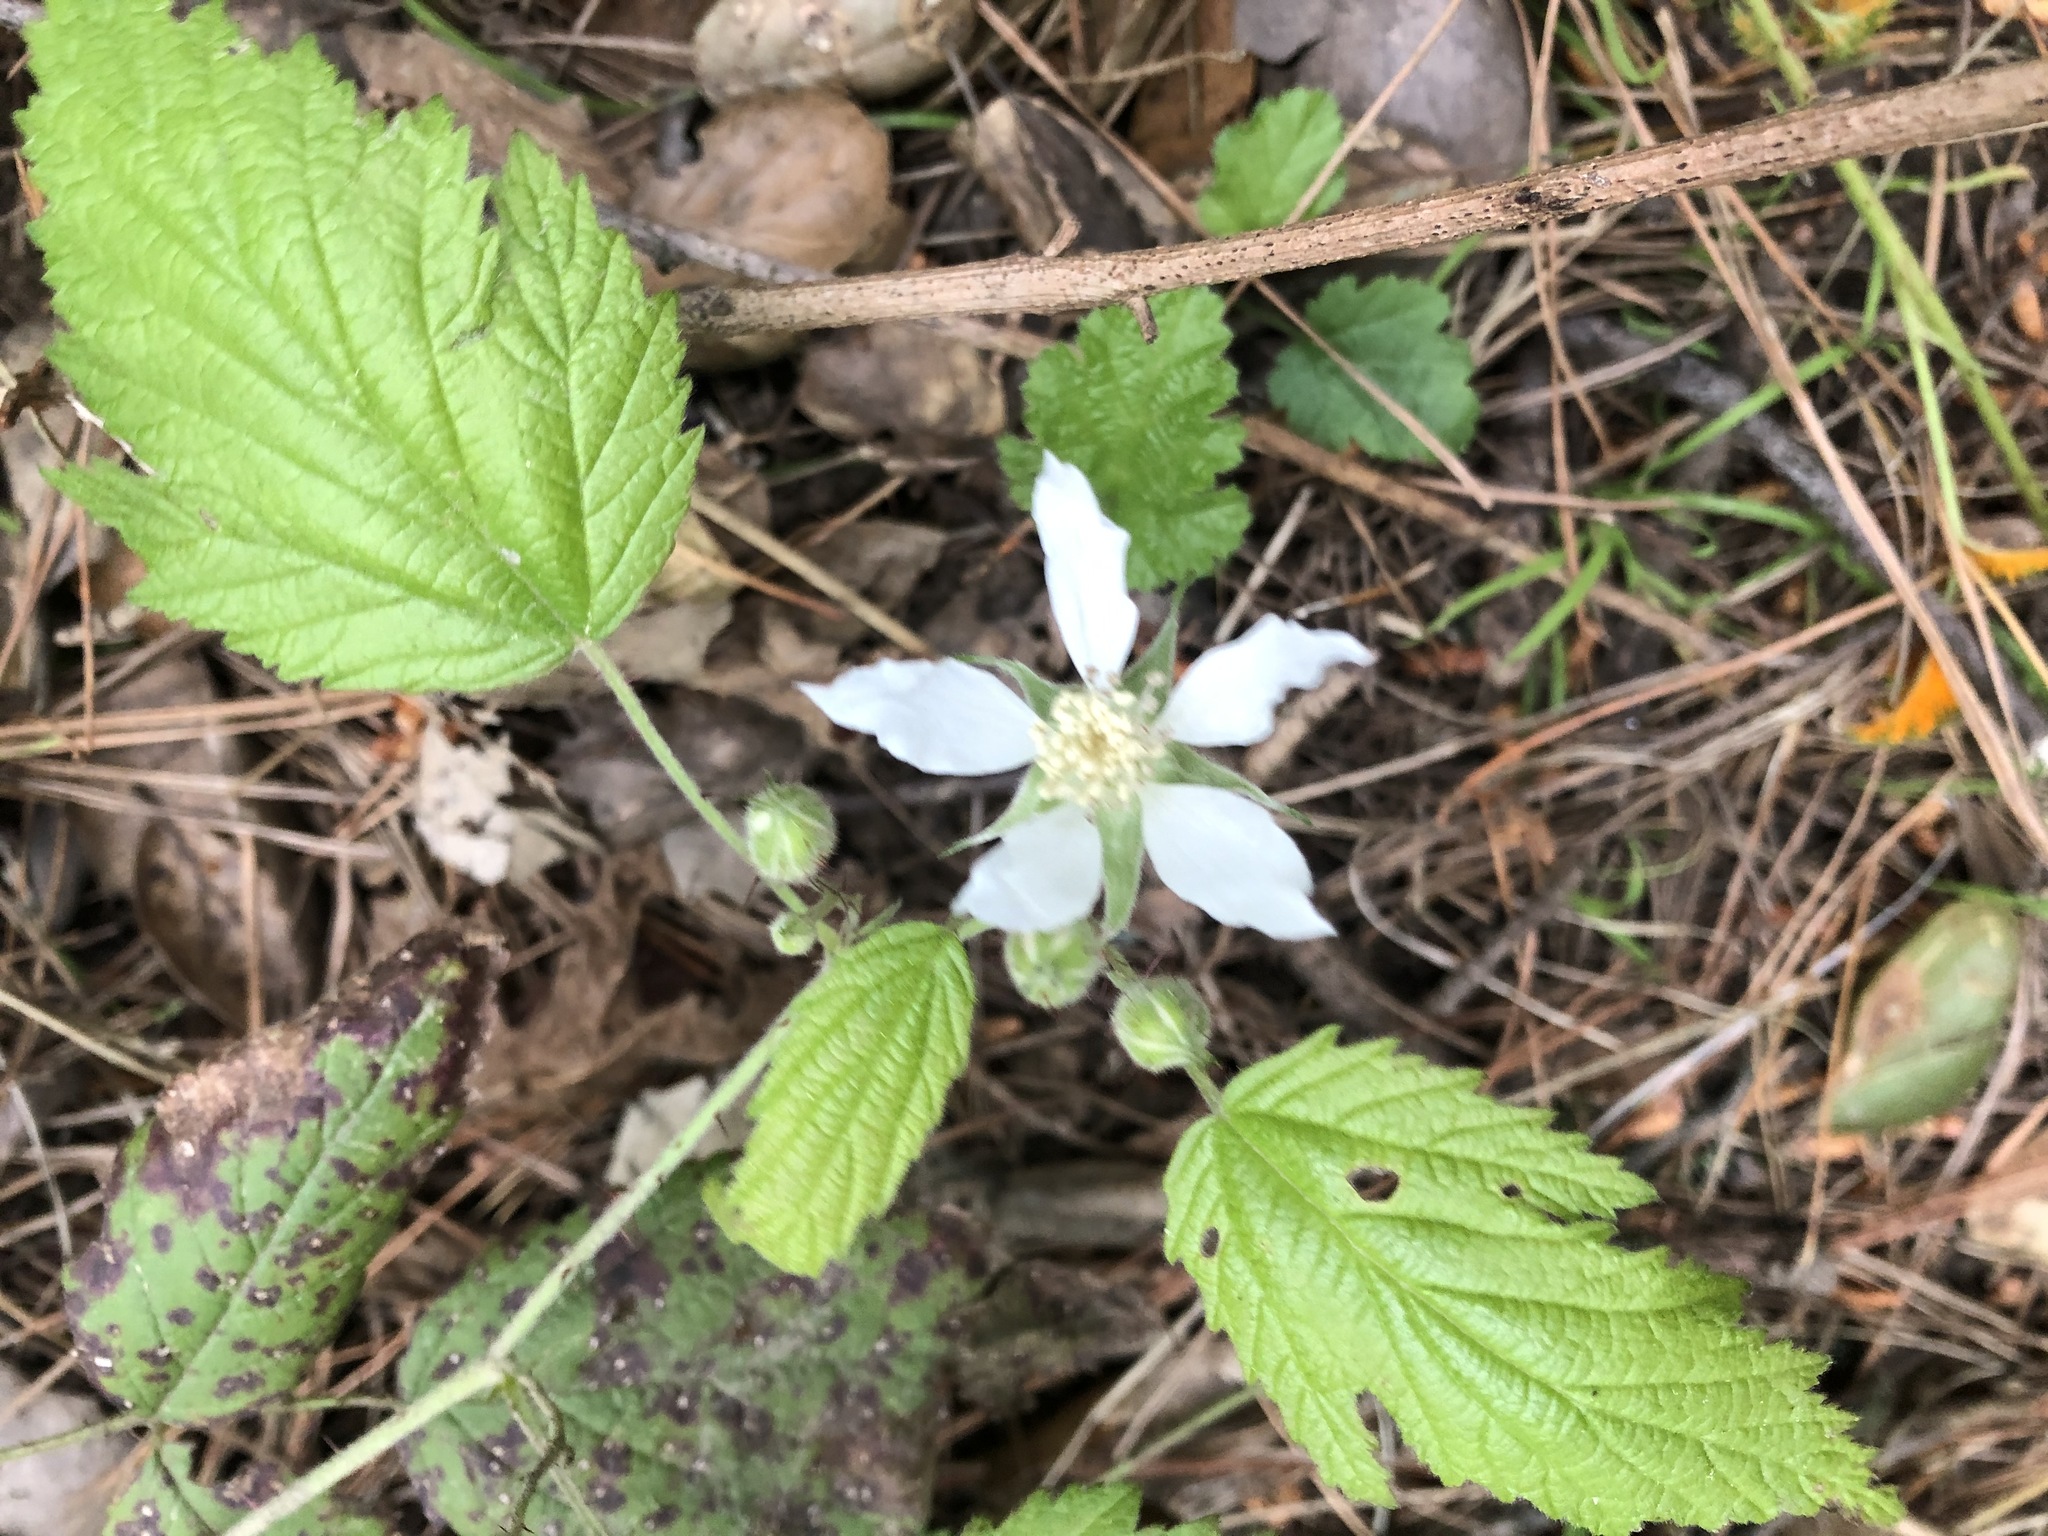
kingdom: Plantae
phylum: Tracheophyta
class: Magnoliopsida
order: Rosales
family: Rosaceae
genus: Rubus
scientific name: Rubus ursinus
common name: Pacific blackberry
